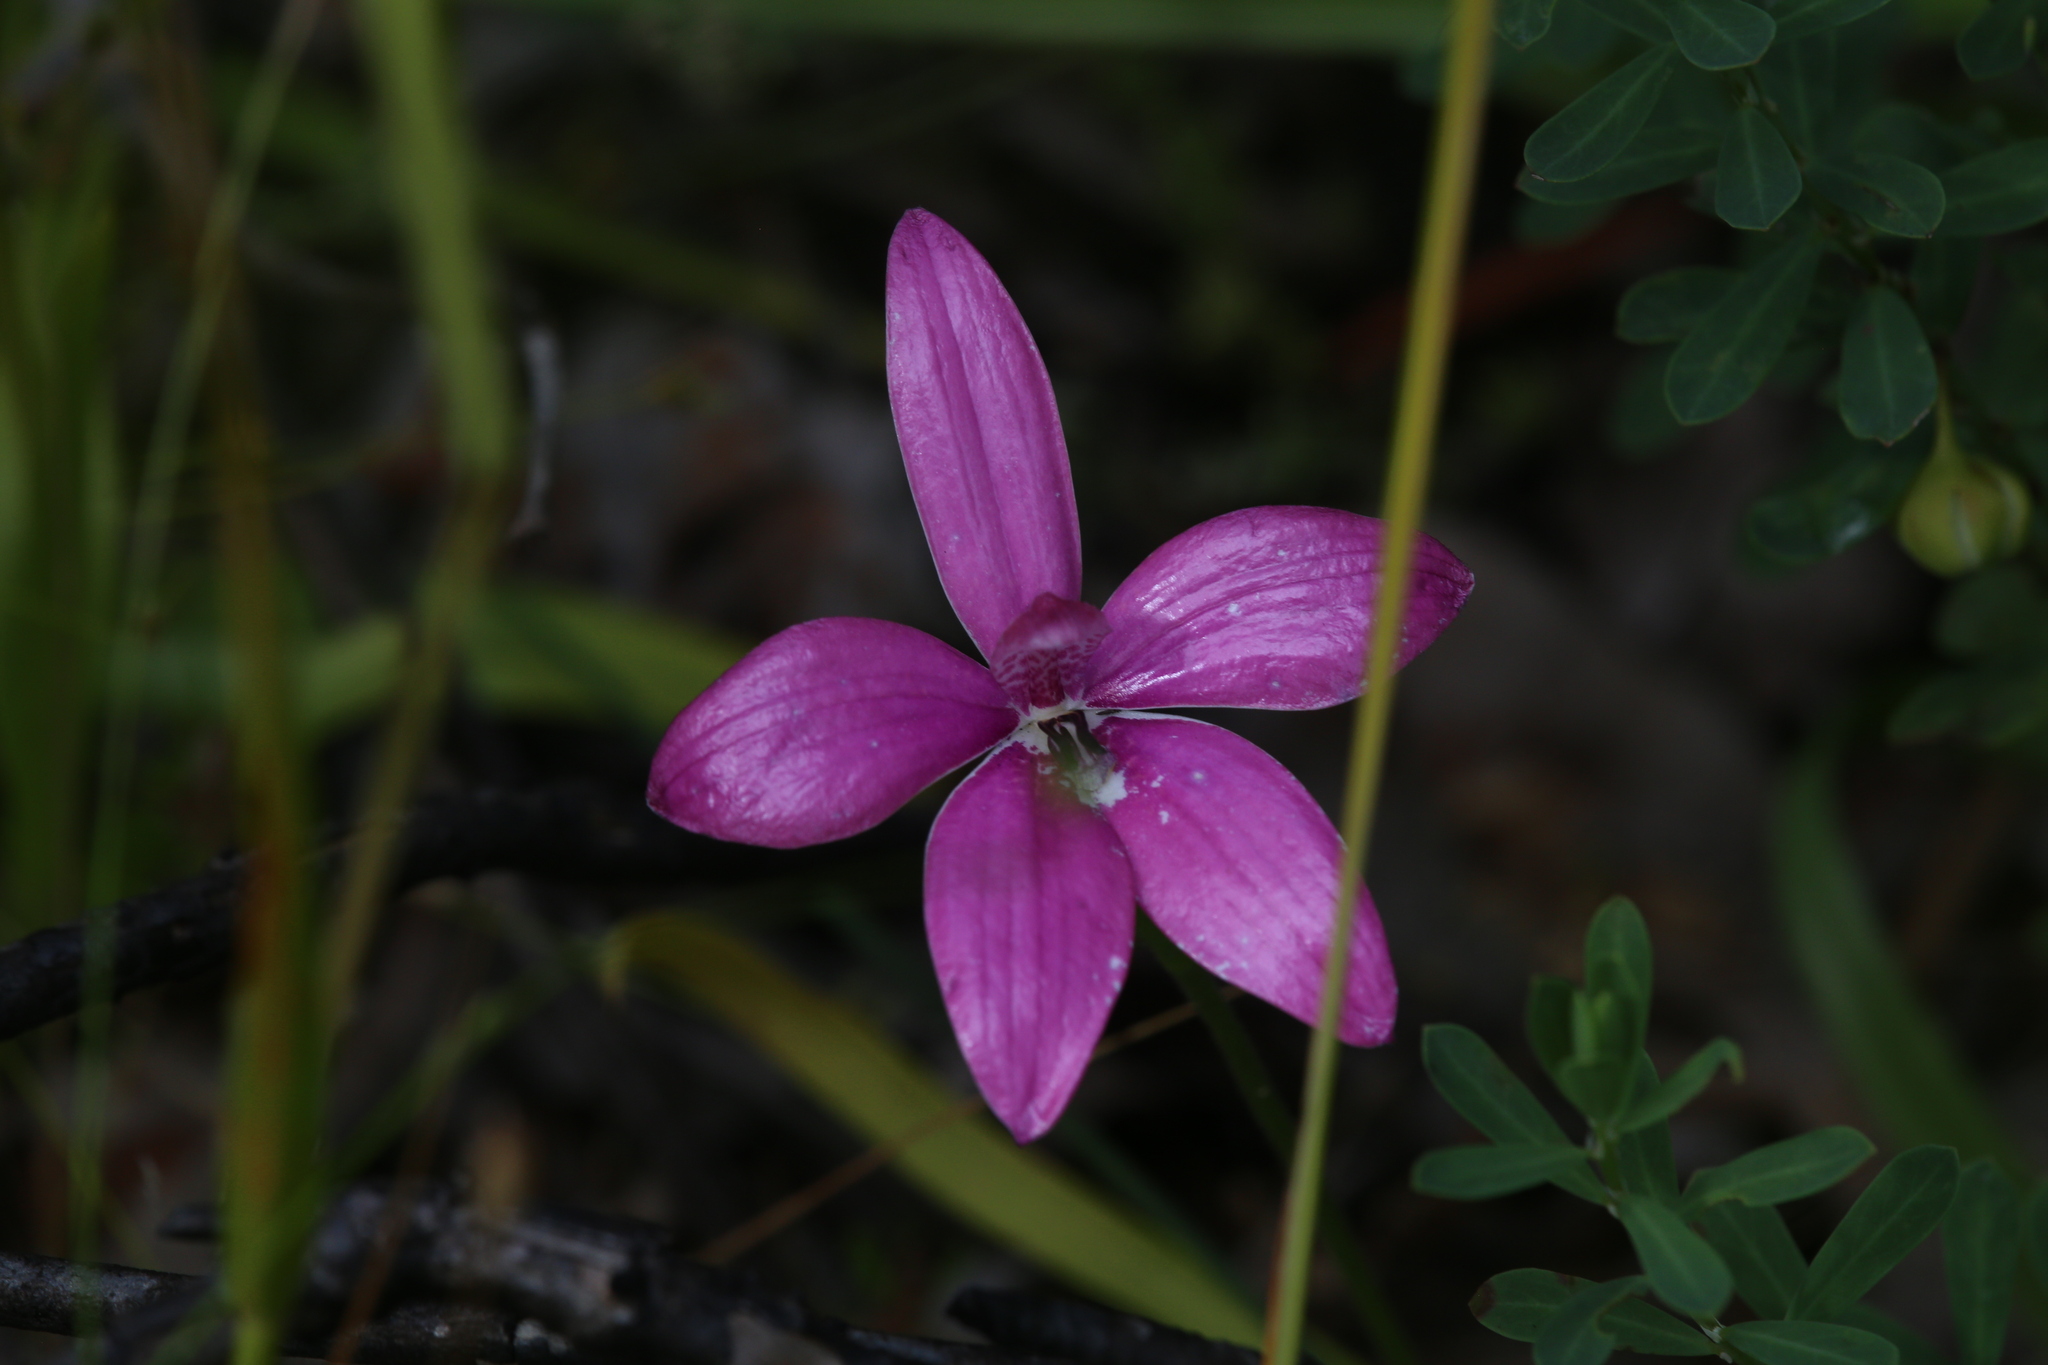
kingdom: Plantae
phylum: Tracheophyta
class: Liliopsida
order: Asparagales
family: Orchidaceae
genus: Caladenia
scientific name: Caladenia emarginata
